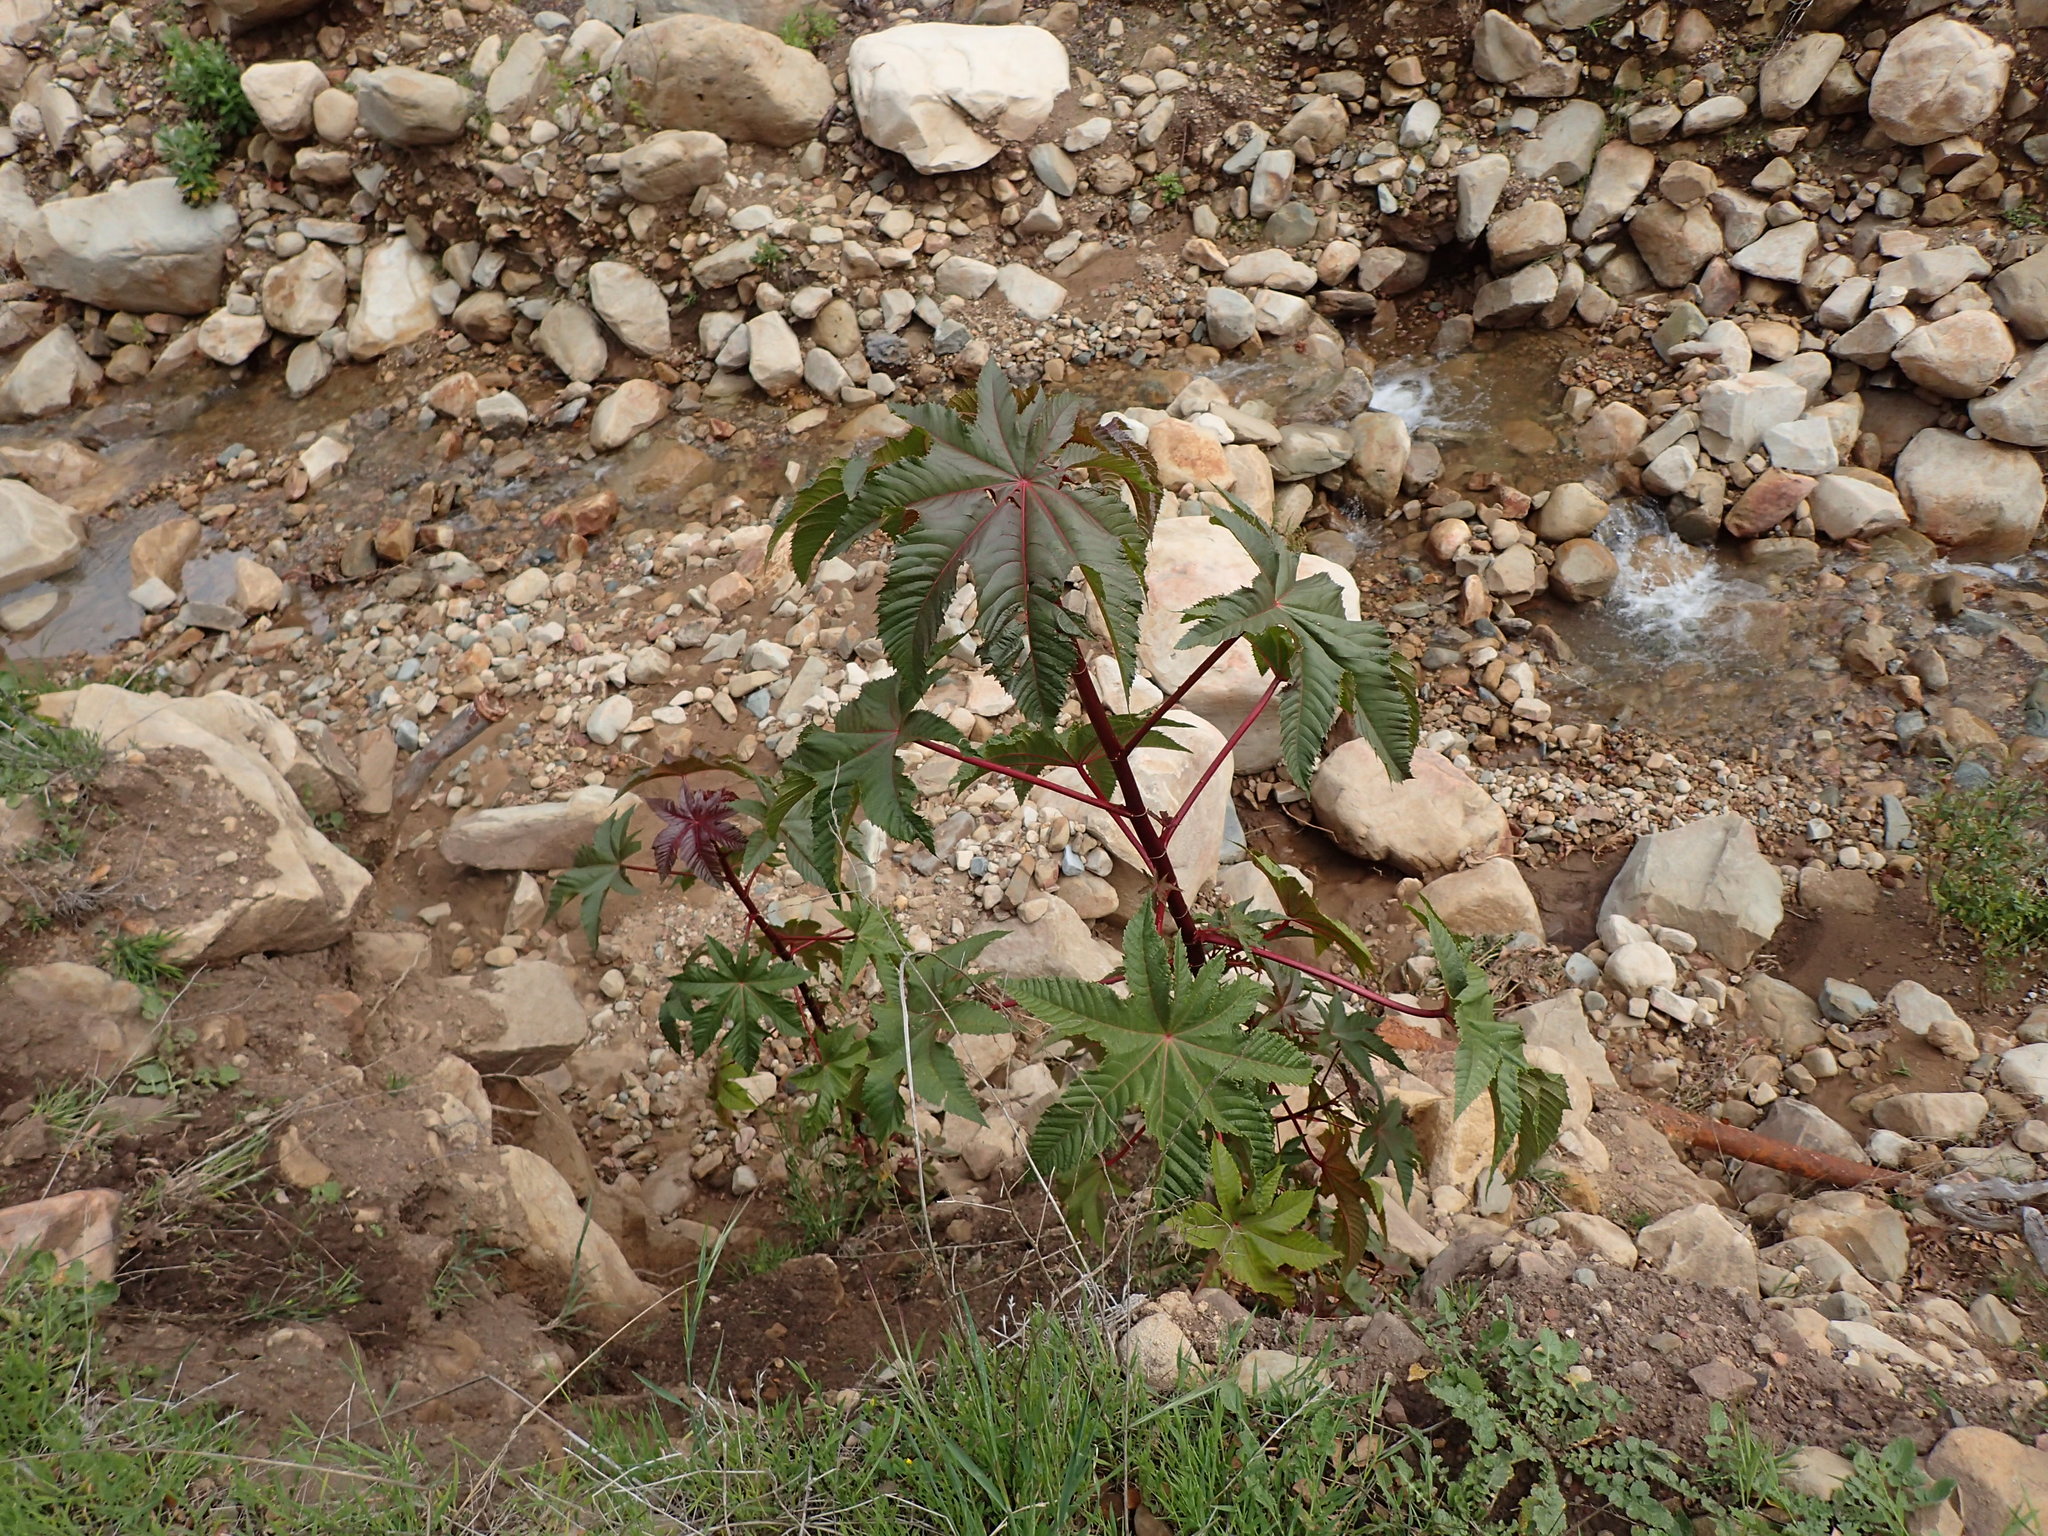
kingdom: Plantae
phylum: Tracheophyta
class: Magnoliopsida
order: Malpighiales
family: Euphorbiaceae
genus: Ricinus
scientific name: Ricinus communis
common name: Castor-oil-plant
